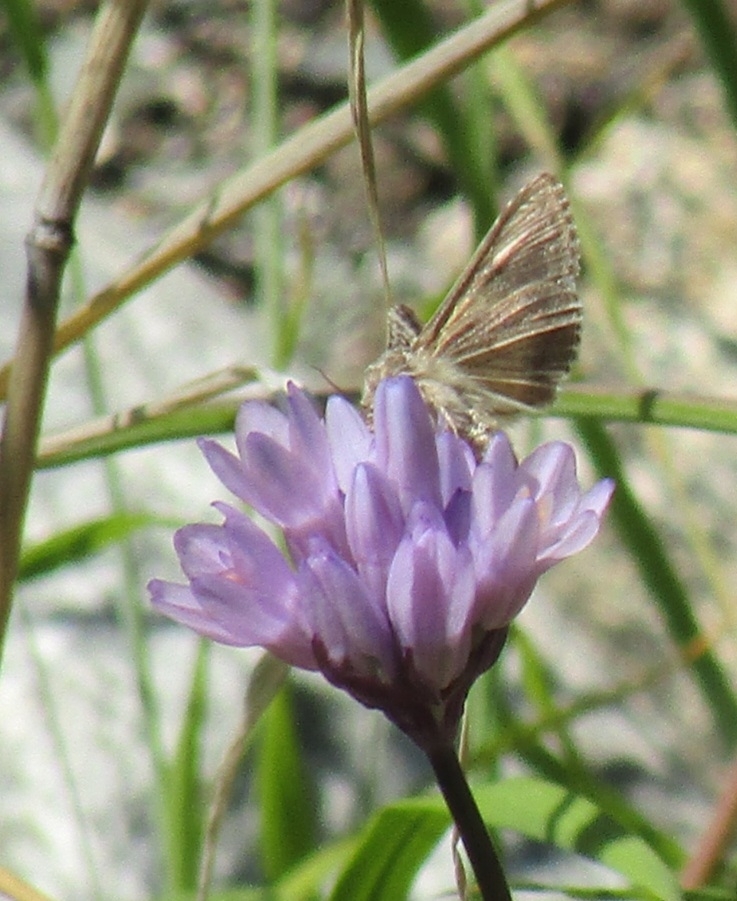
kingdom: Plantae
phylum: Tracheophyta
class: Liliopsida
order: Asparagales
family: Asparagaceae
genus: Dipterostemon
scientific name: Dipterostemon capitatus
